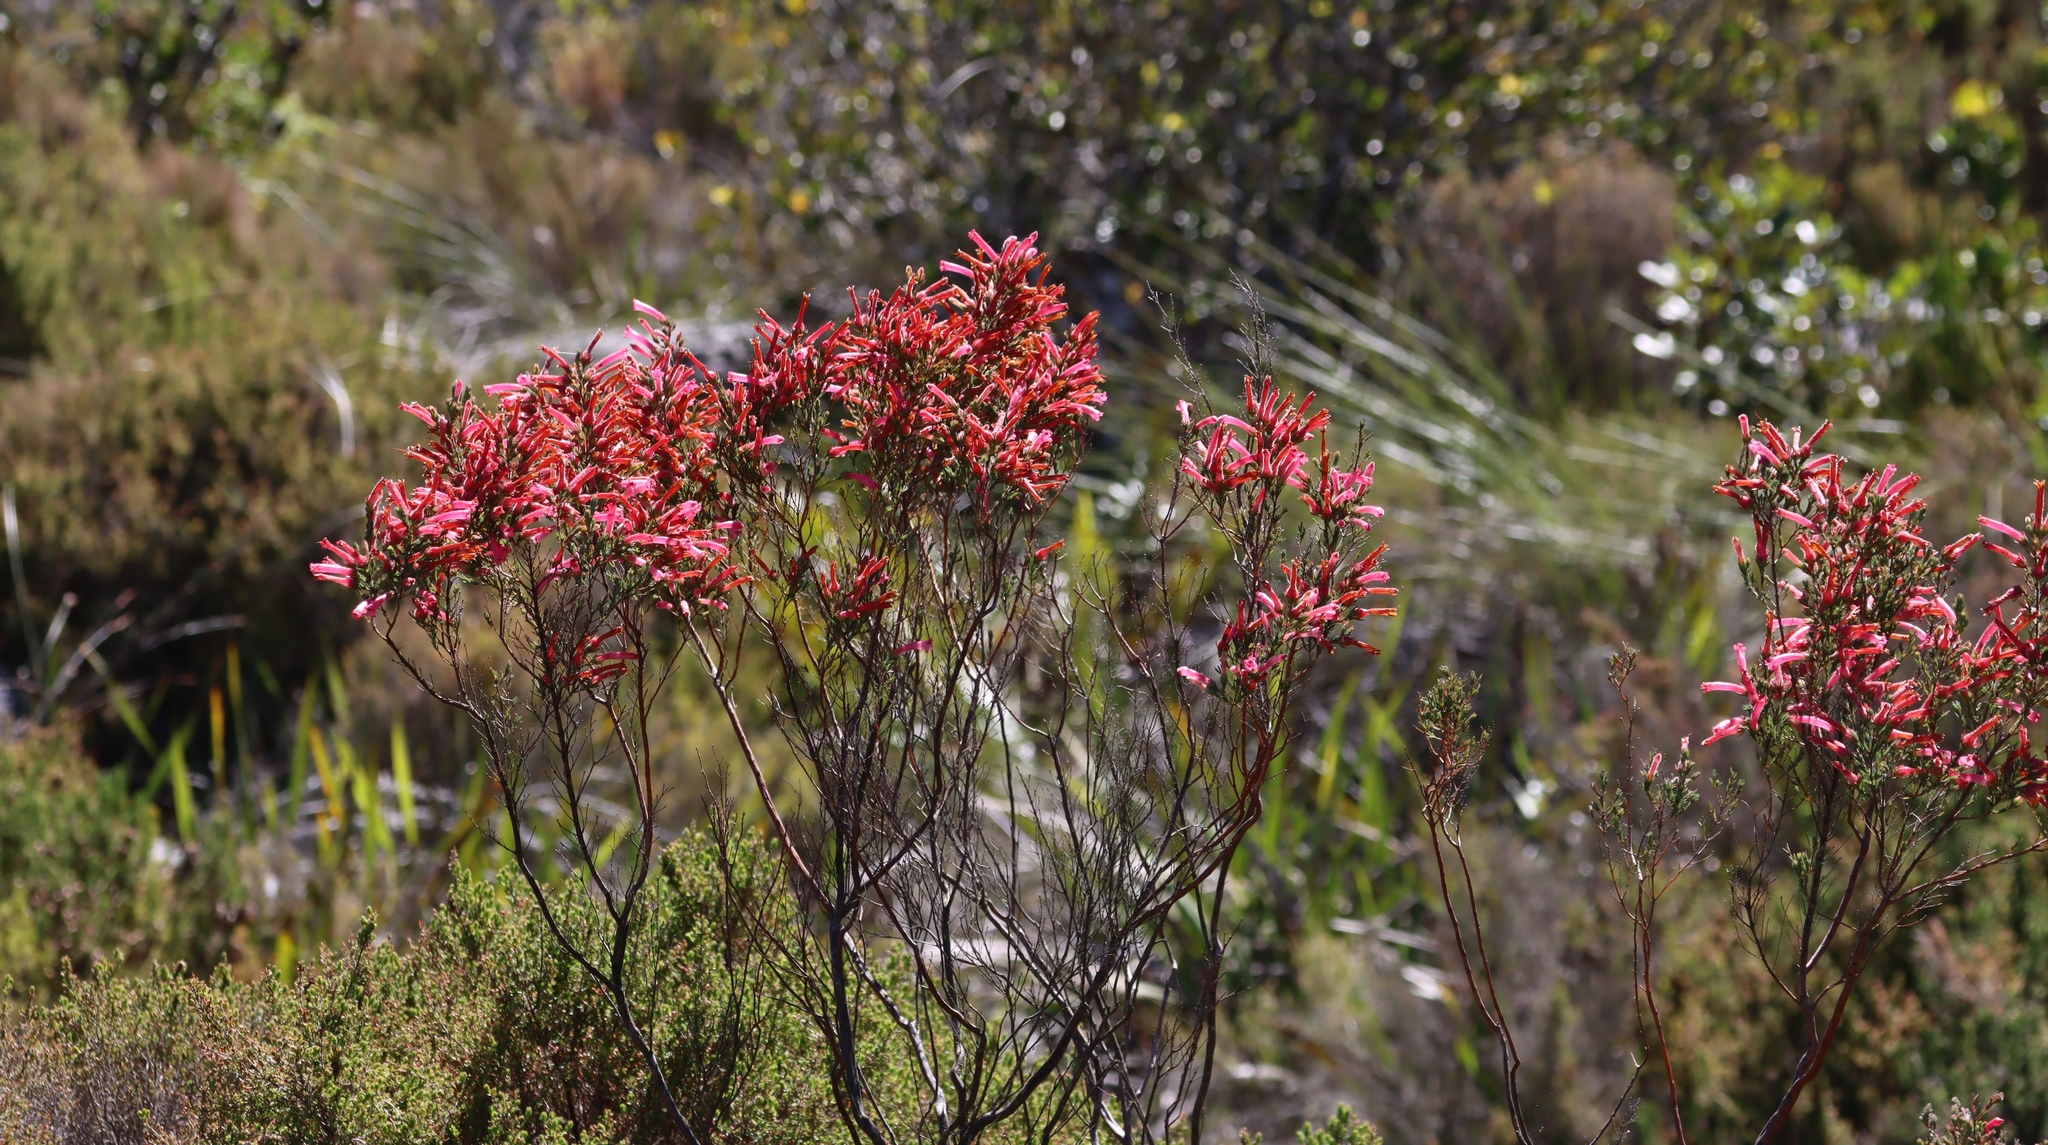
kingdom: Plantae
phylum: Tracheophyta
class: Magnoliopsida
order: Ericales
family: Ericaceae
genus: Erica
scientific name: Erica curviflora
